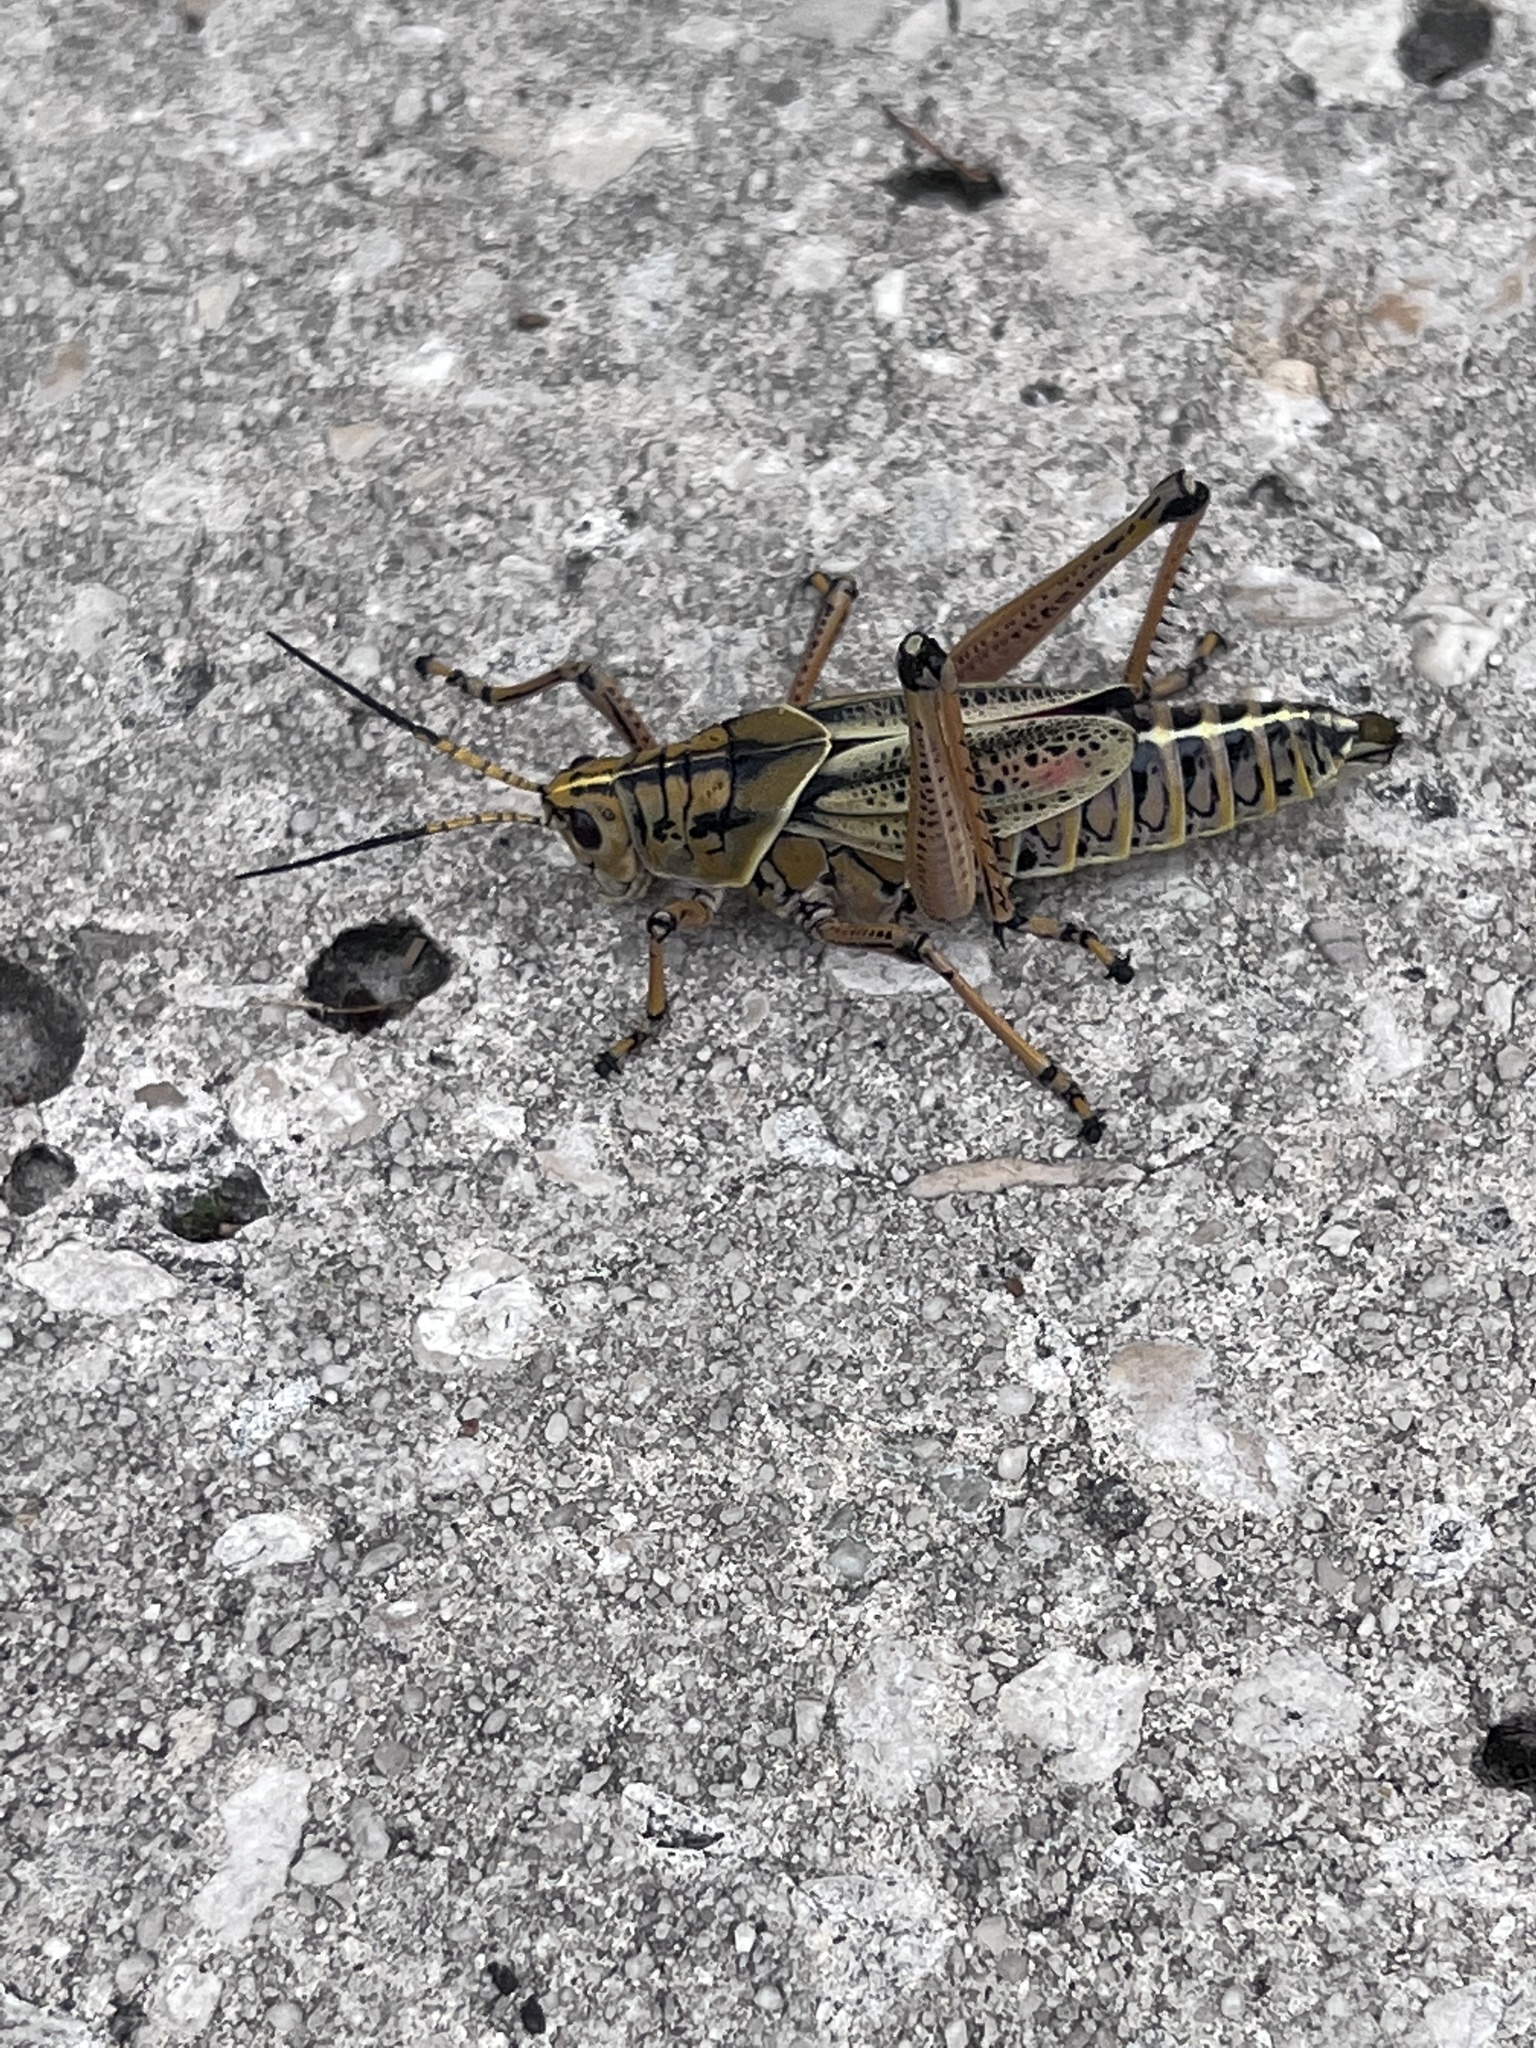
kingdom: Animalia
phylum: Arthropoda
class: Insecta
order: Orthoptera
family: Romaleidae
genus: Romalea
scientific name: Romalea microptera
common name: Eastern lubber grasshopper
